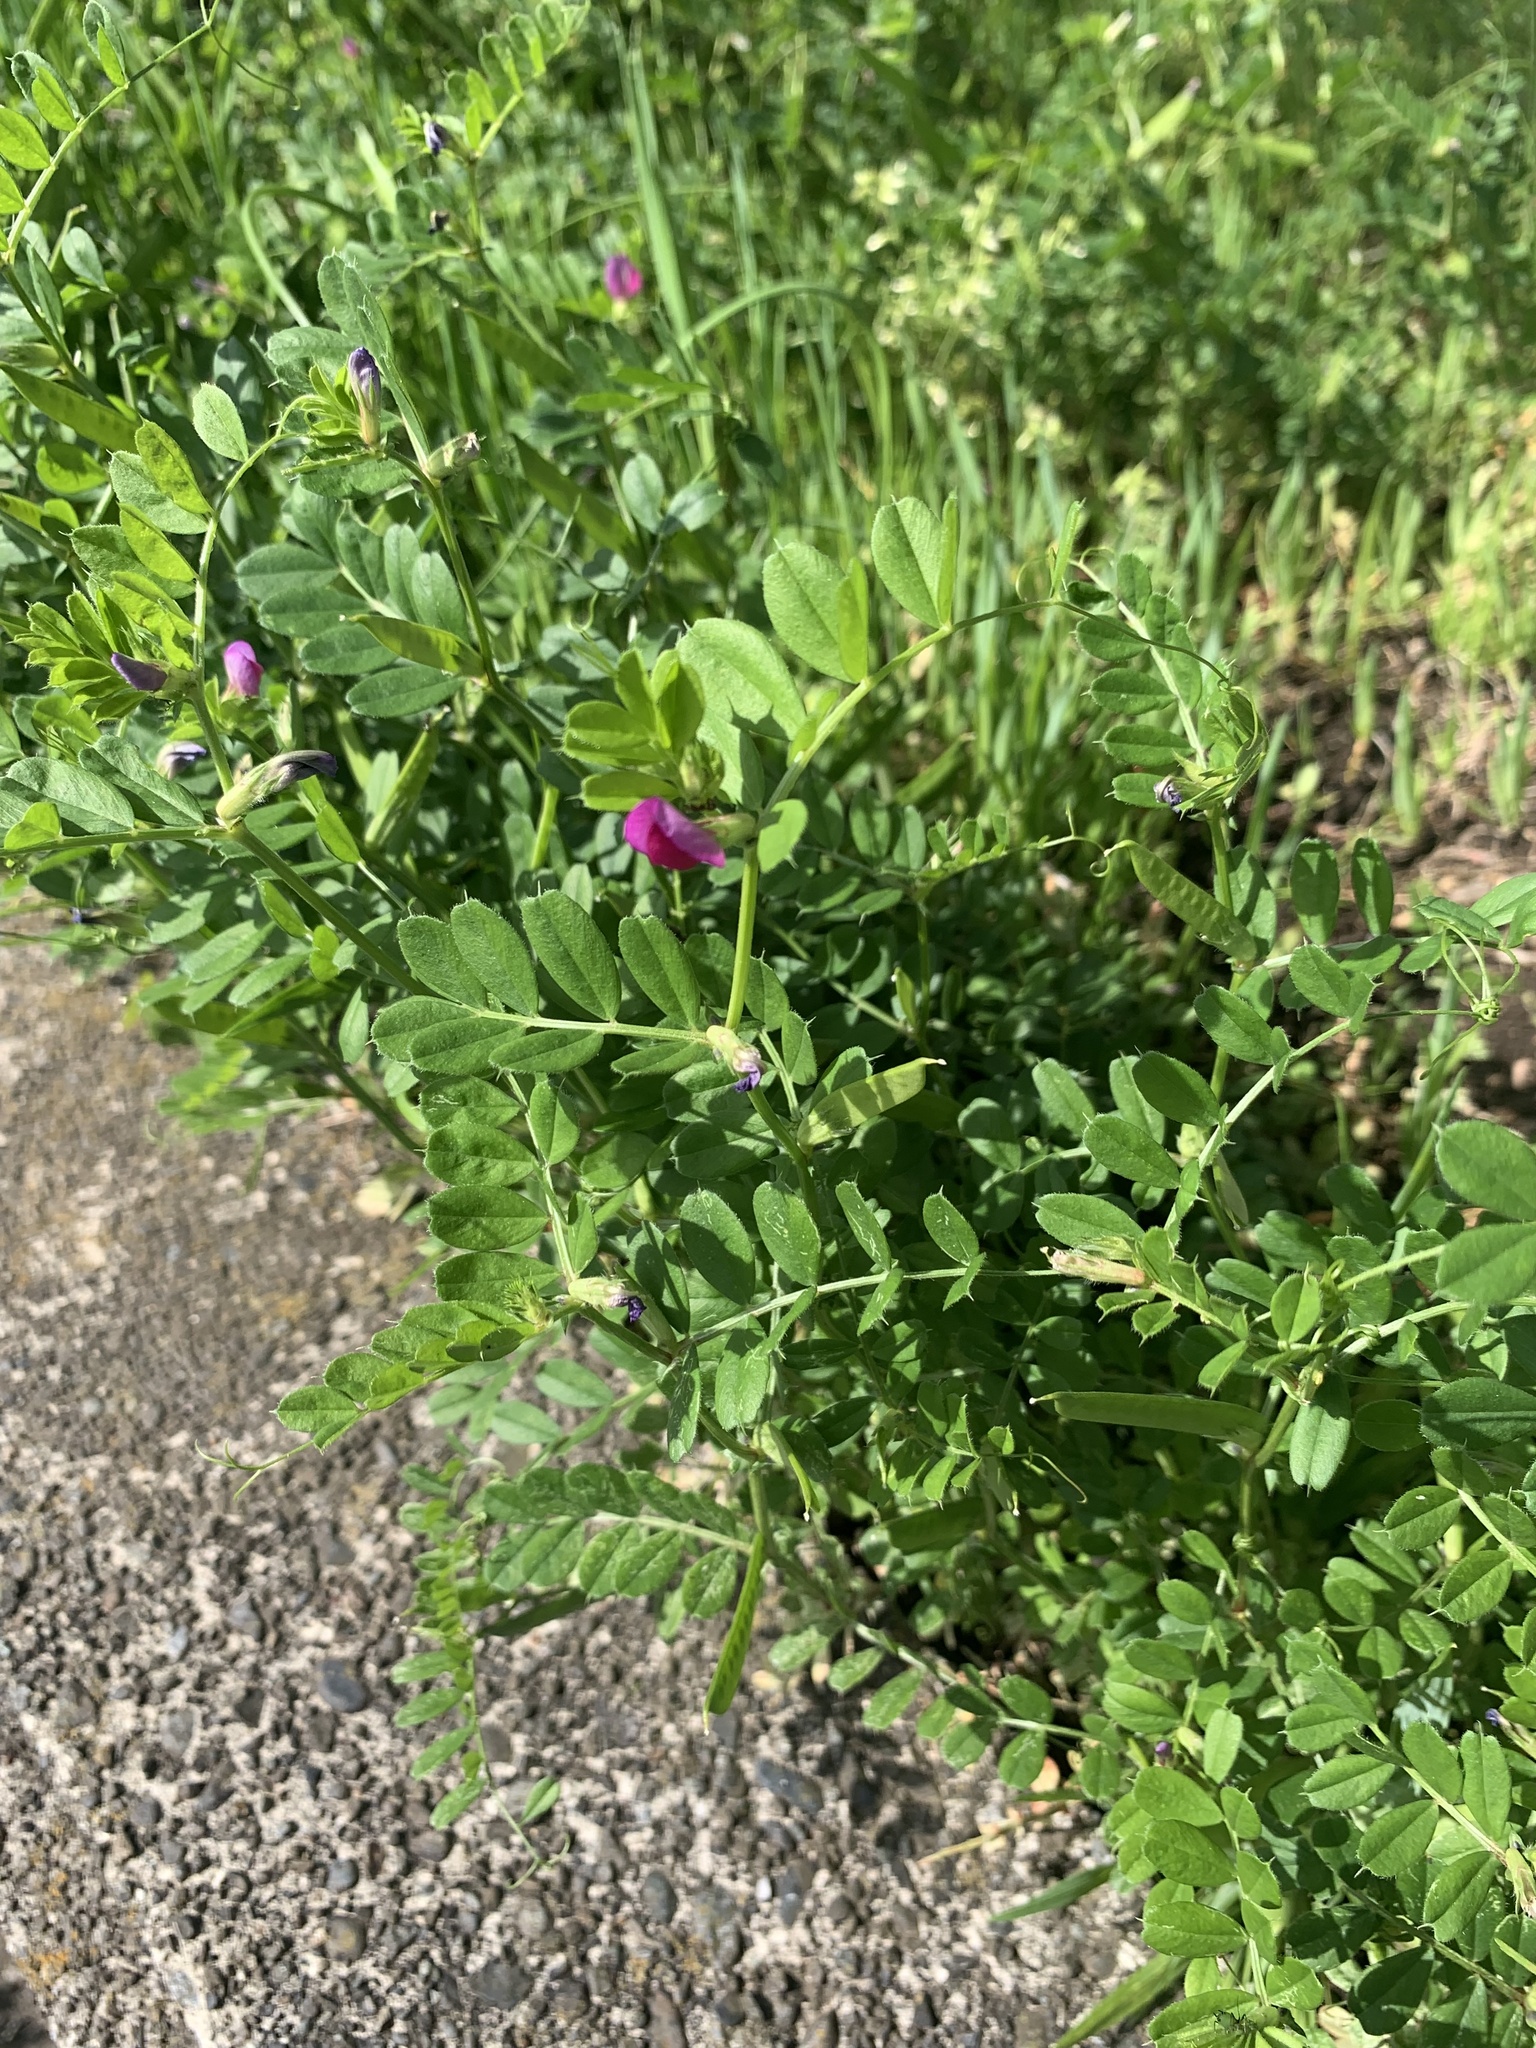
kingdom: Plantae
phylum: Tracheophyta
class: Magnoliopsida
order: Fabales
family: Fabaceae
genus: Vicia
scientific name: Vicia sativa
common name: Garden vetch
